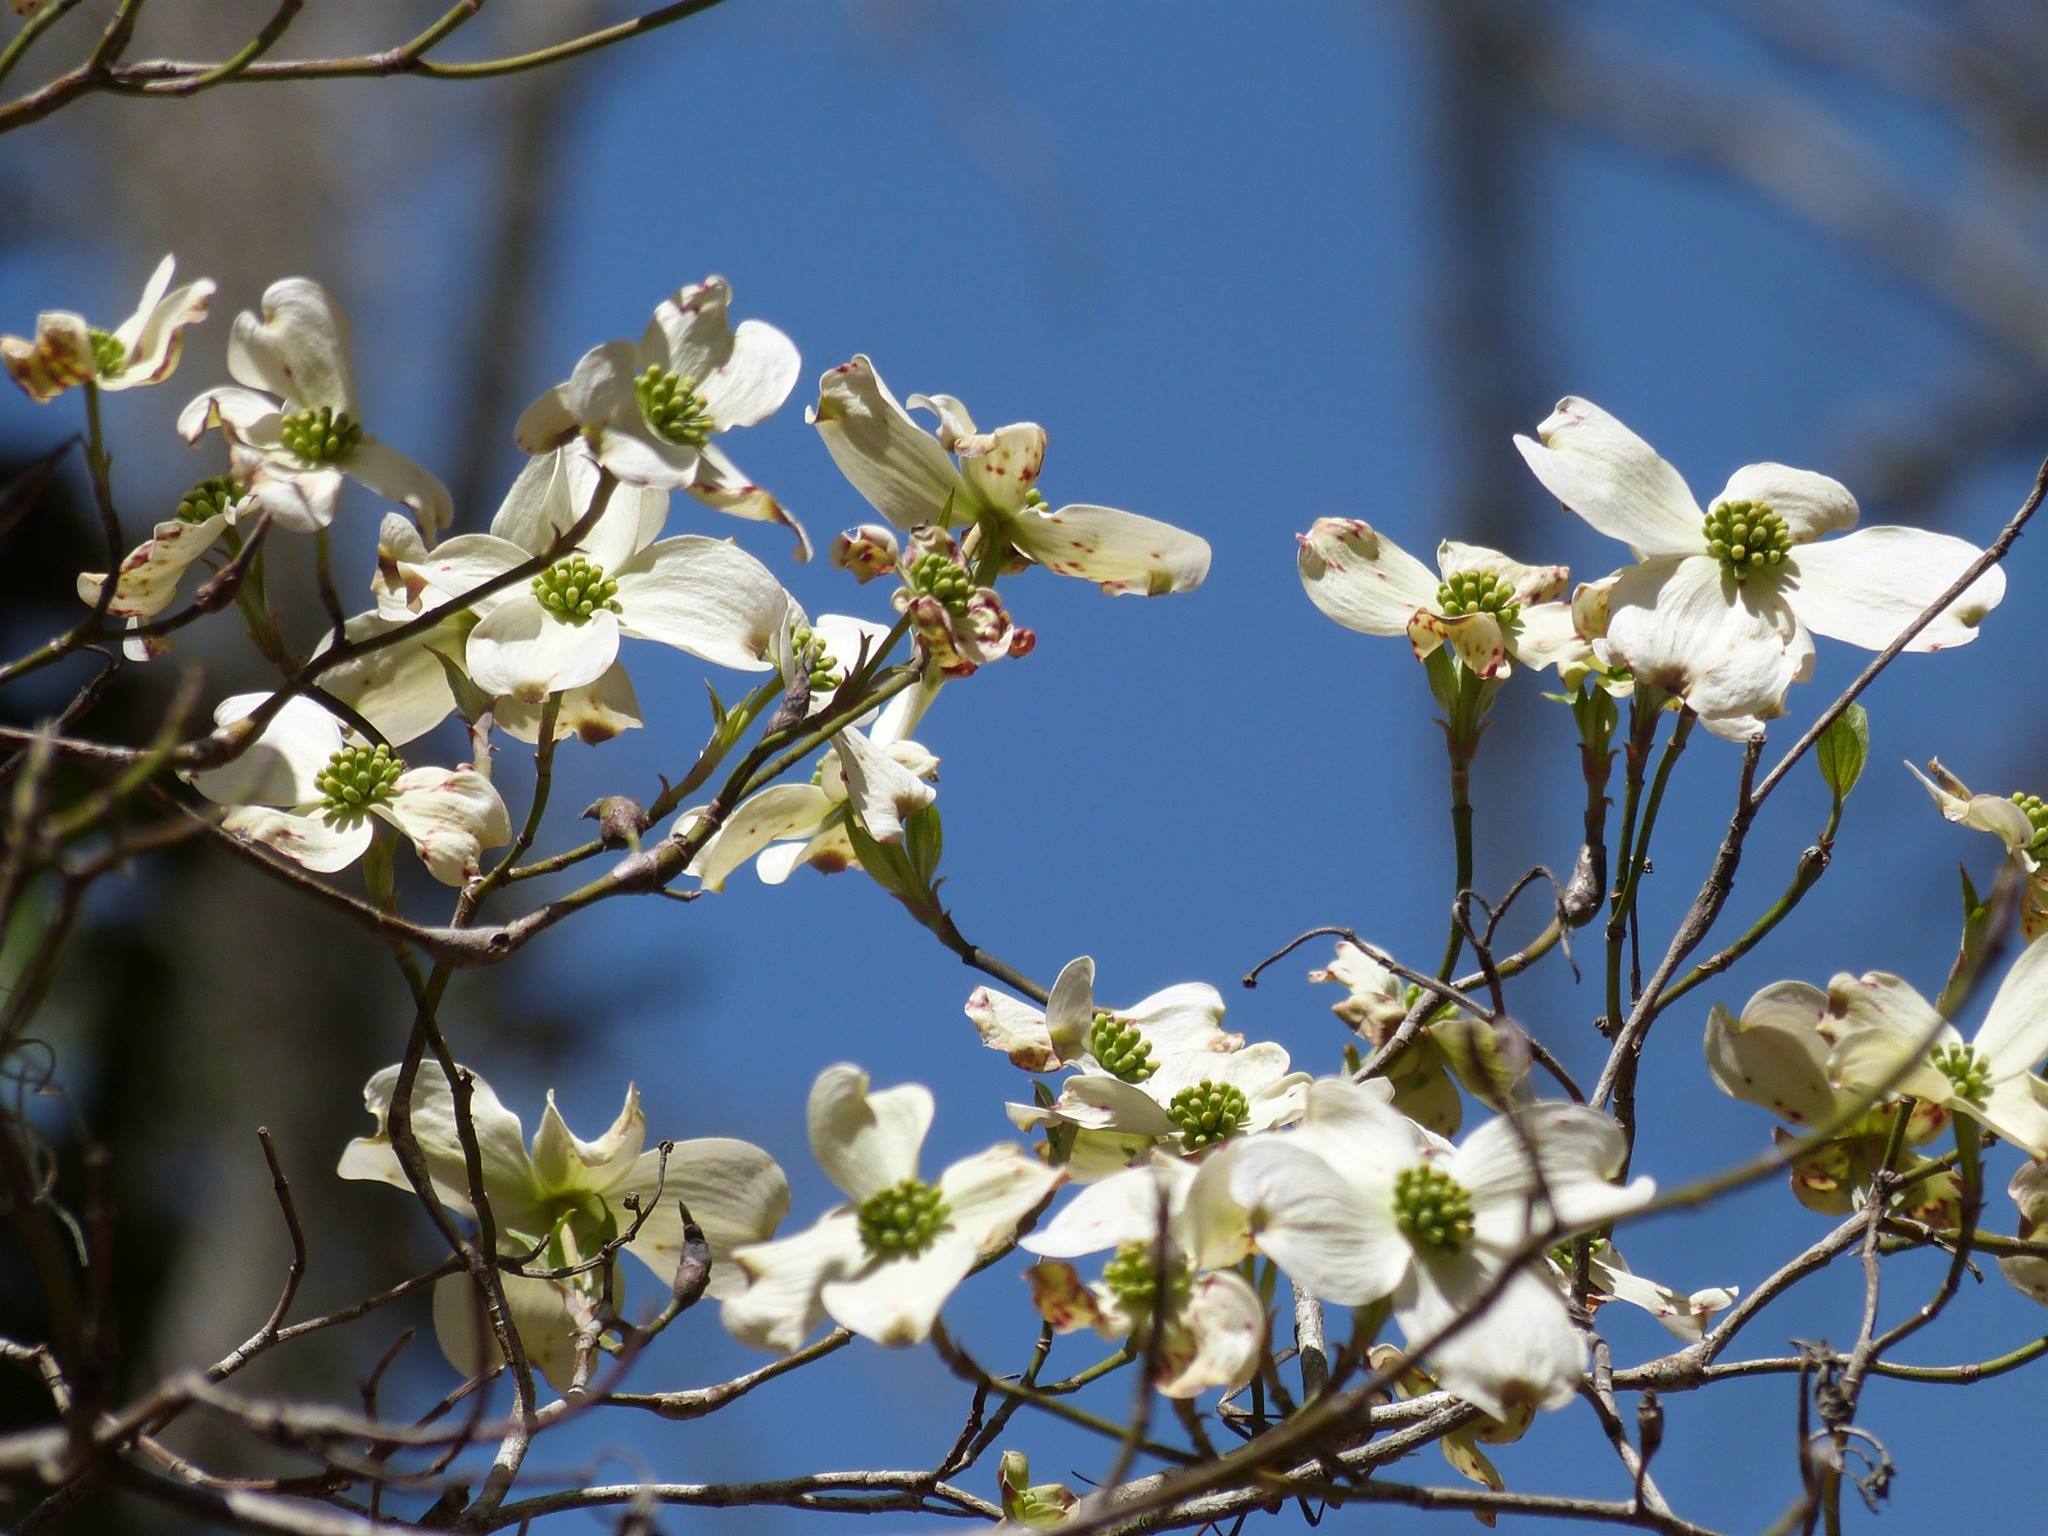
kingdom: Plantae
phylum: Tracheophyta
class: Magnoliopsida
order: Cornales
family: Cornaceae
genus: Cornus
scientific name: Cornus florida
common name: Flowering dogwood
